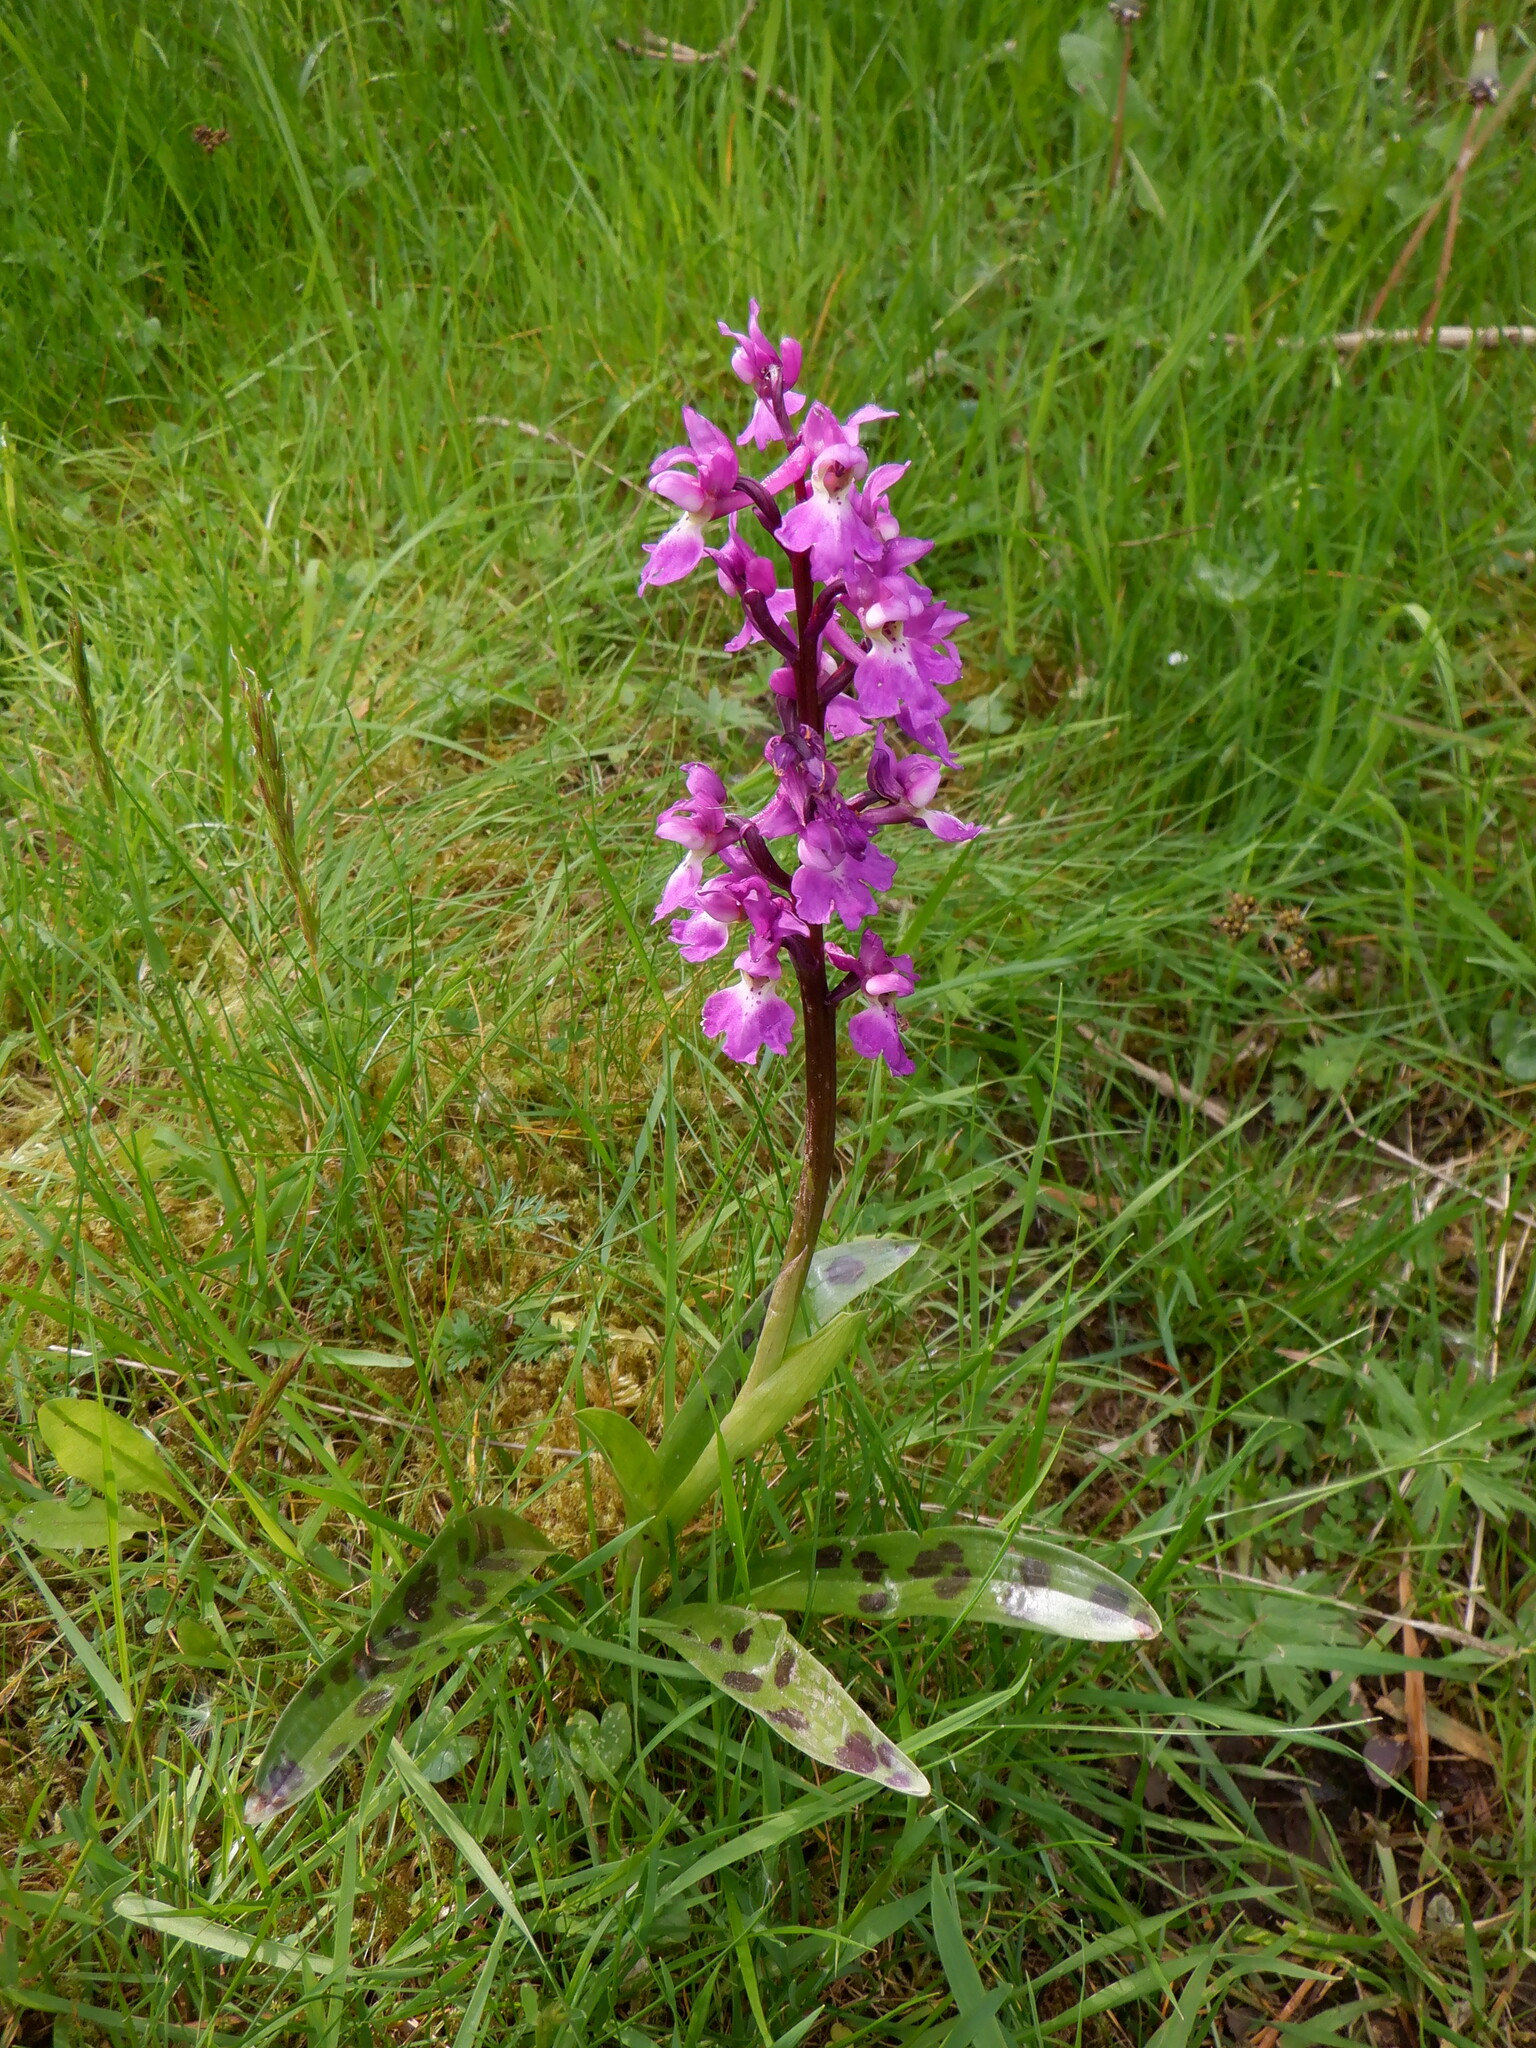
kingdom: Plantae
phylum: Tracheophyta
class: Liliopsida
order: Asparagales
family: Orchidaceae
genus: Orchis
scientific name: Orchis mascula
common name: Early-purple orchid
